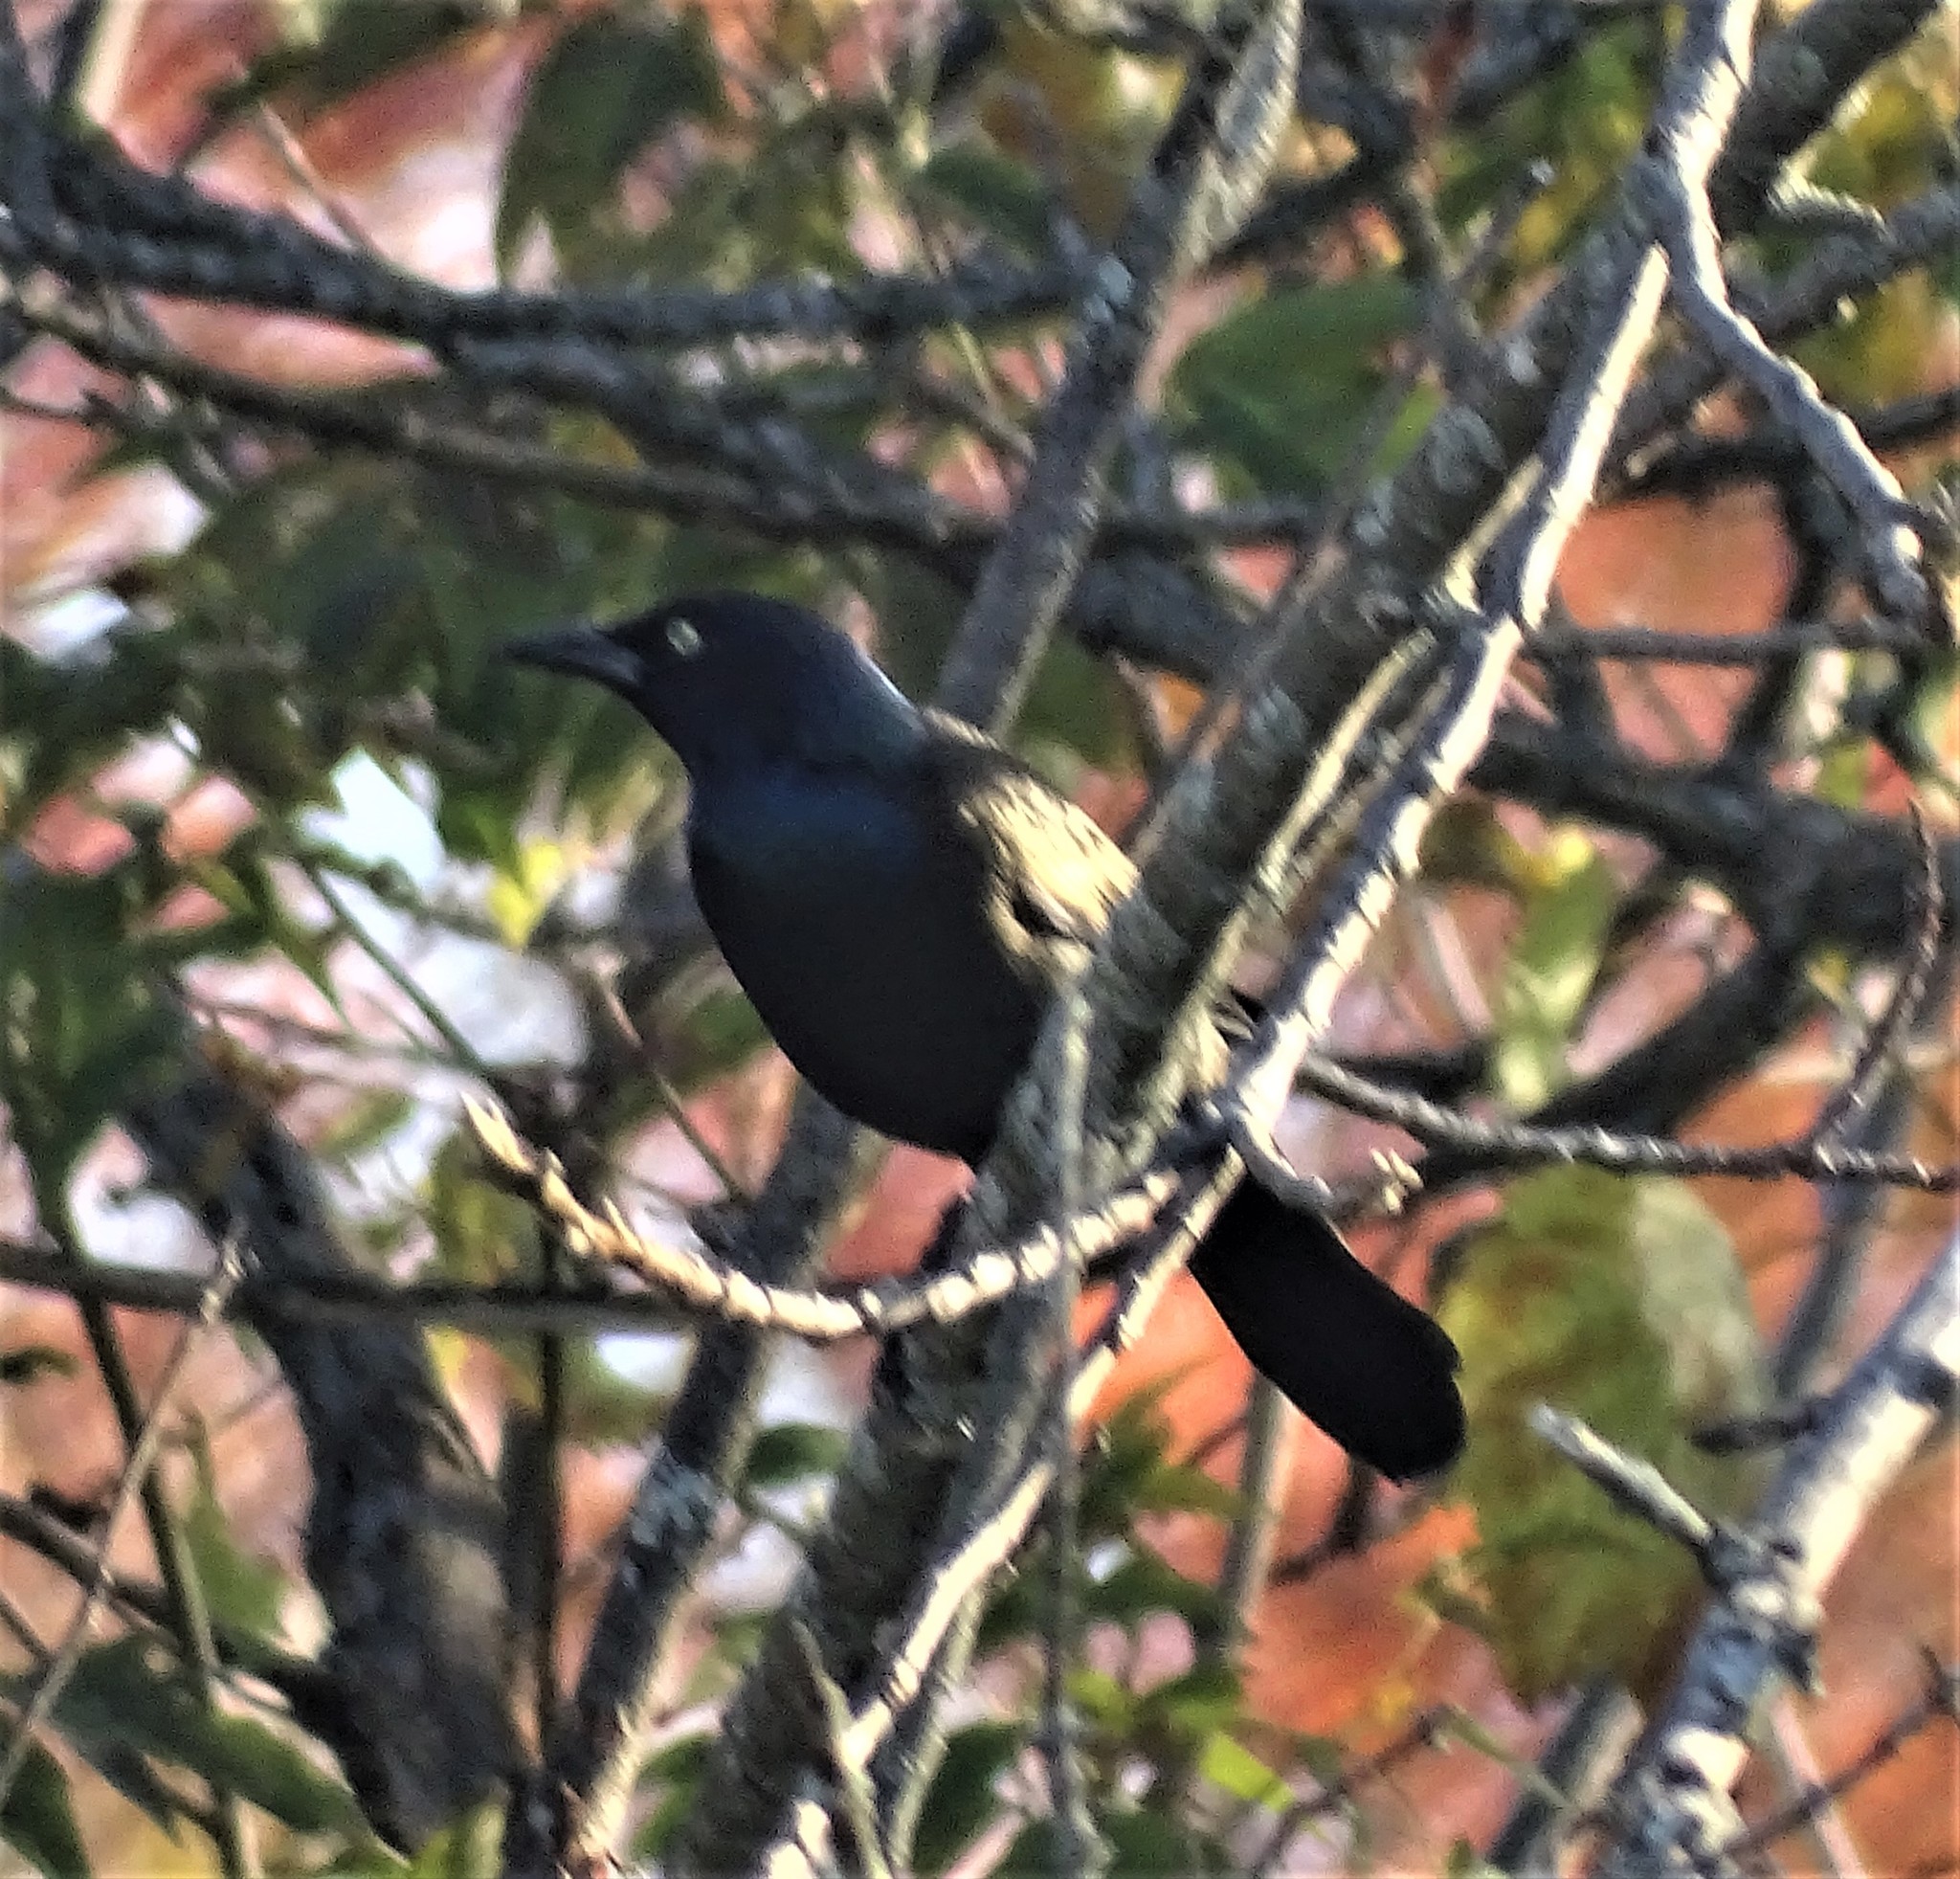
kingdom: Animalia
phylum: Chordata
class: Aves
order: Passeriformes
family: Icteridae
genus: Quiscalus
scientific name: Quiscalus quiscula
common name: Common grackle
